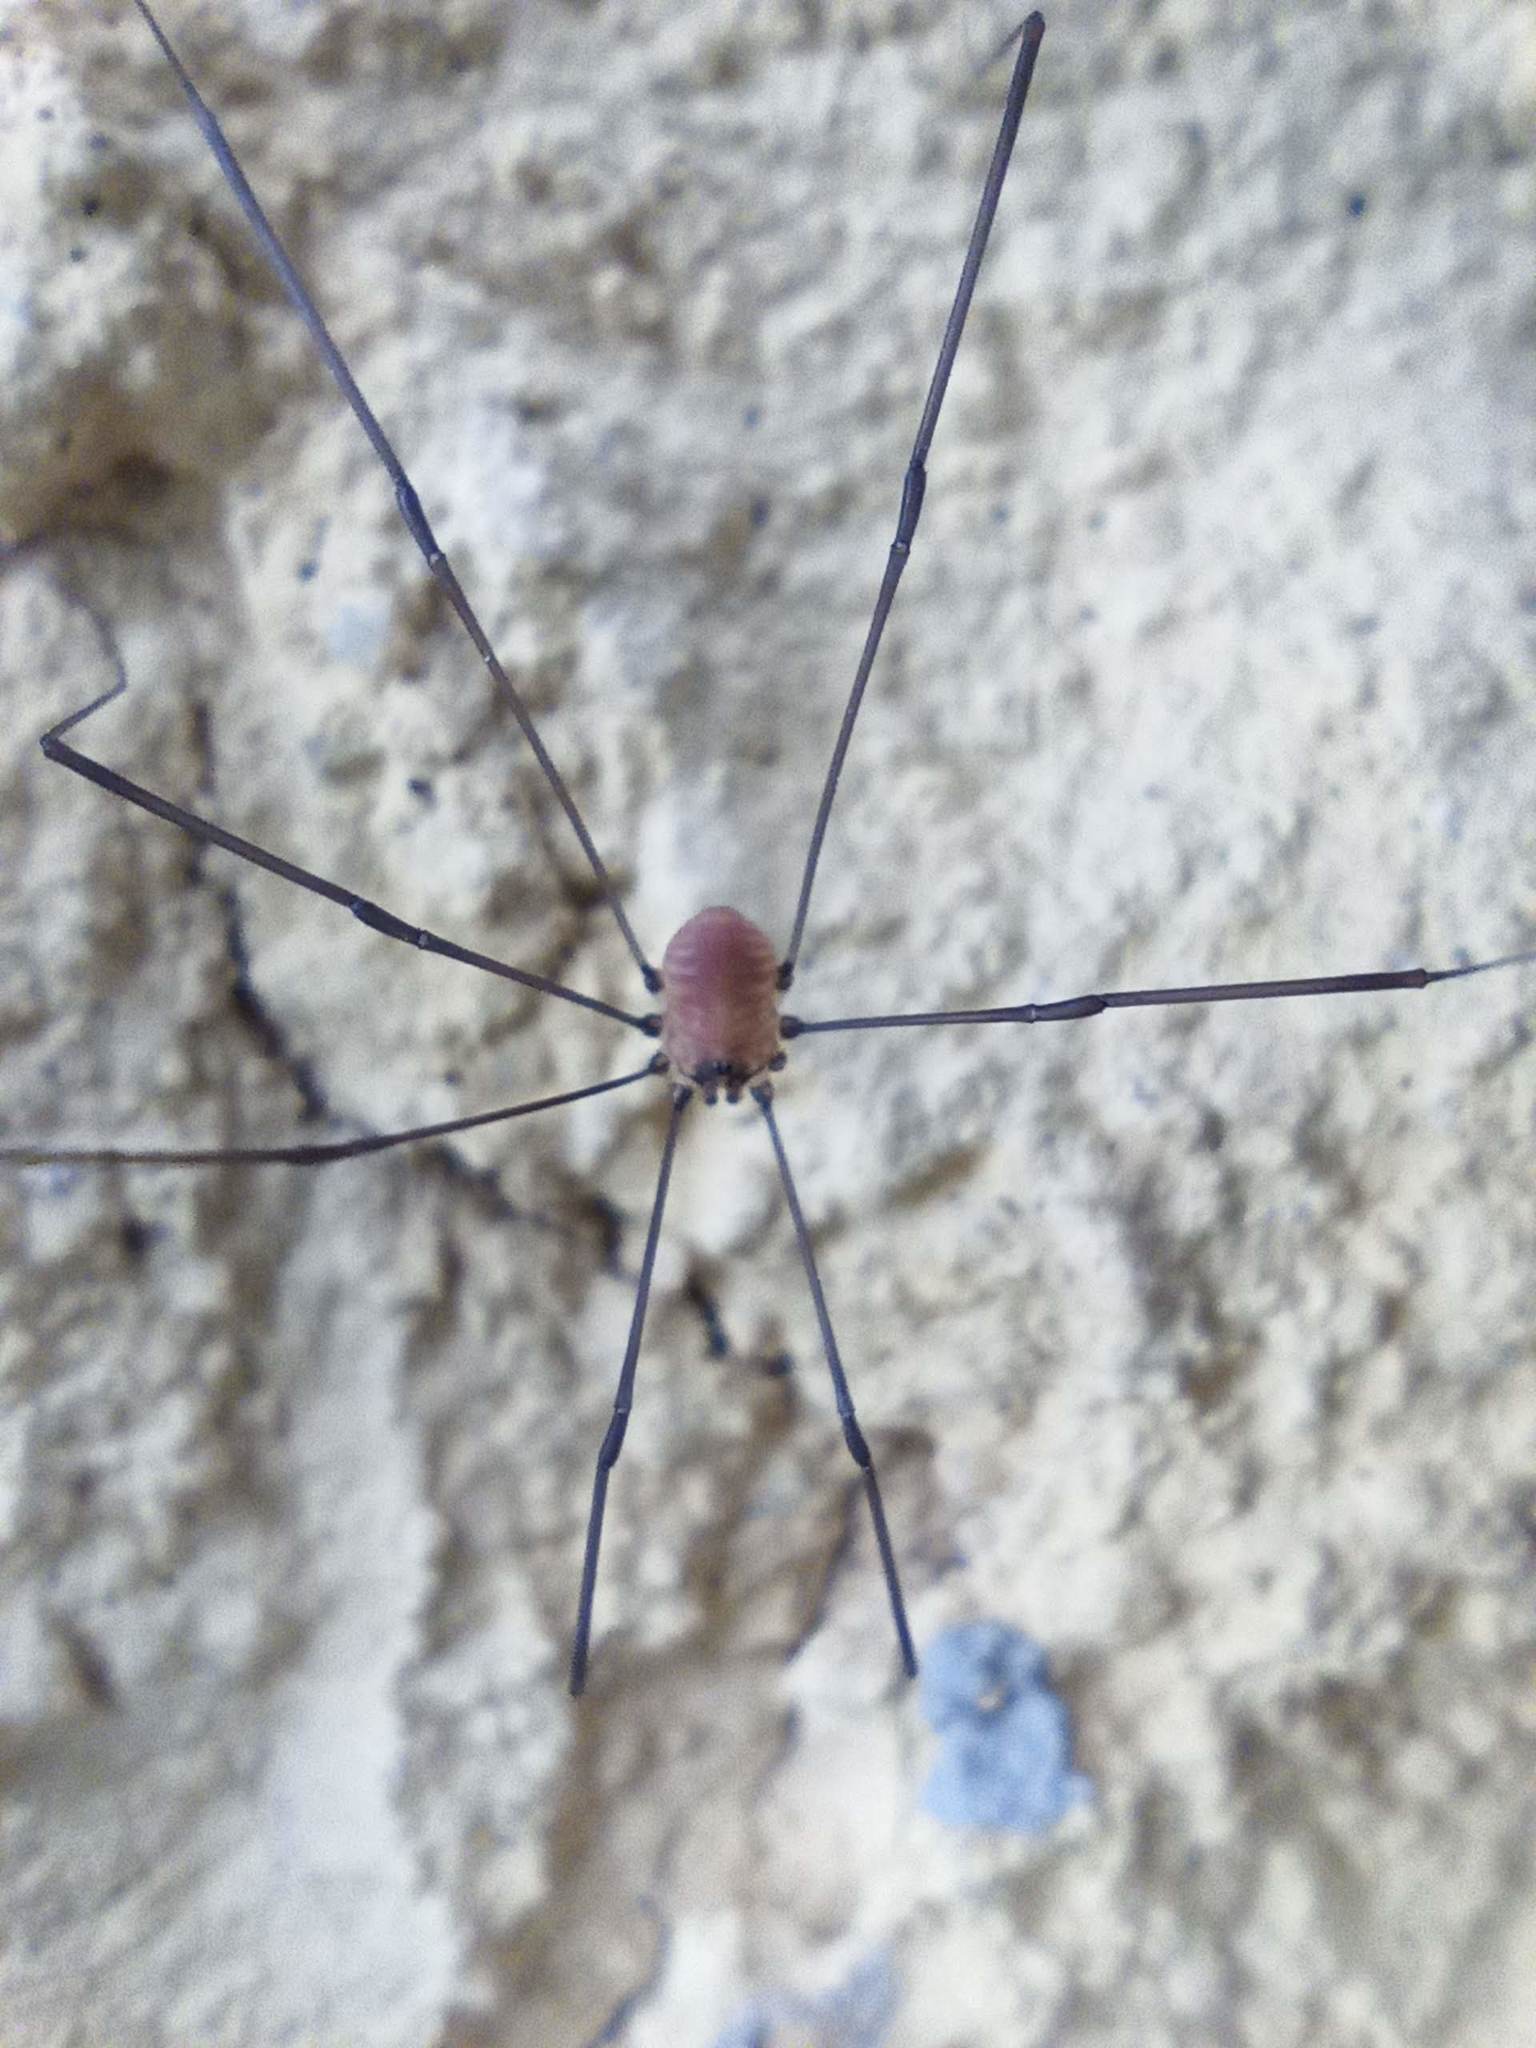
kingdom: Animalia
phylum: Arthropoda
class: Arachnida
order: Opiliones
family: Sclerosomatidae
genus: Leiobunum
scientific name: Leiobunum blackwalli
